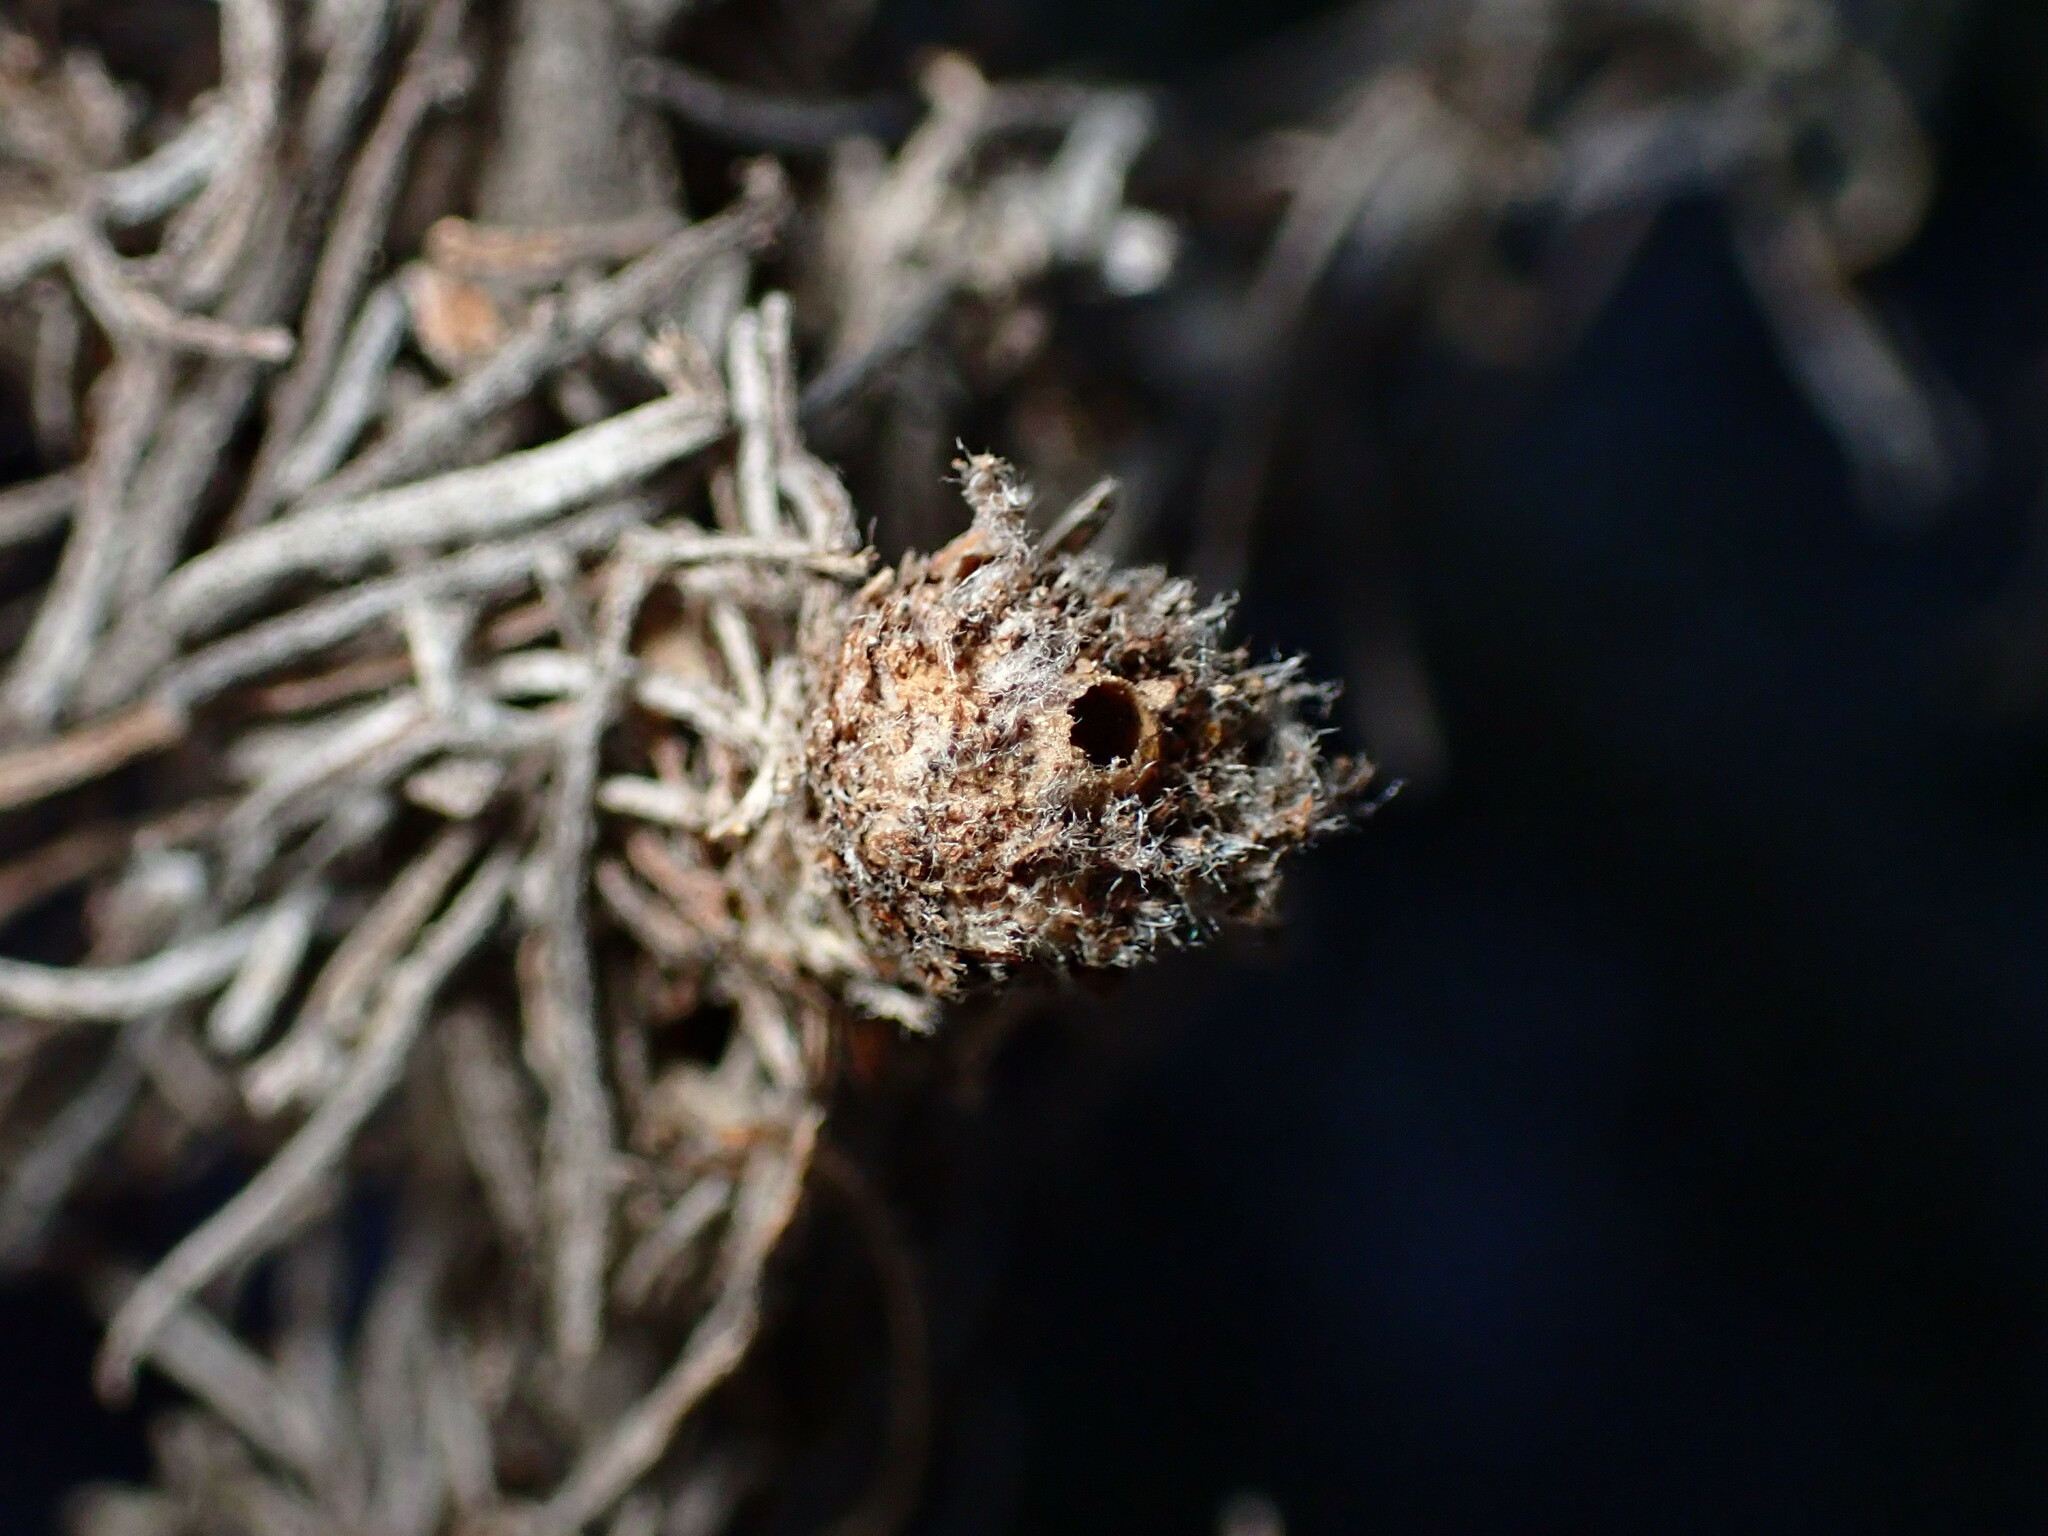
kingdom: Animalia
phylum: Arthropoda
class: Insecta
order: Diptera
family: Cecidomyiidae
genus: Rhopalomyia
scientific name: Rhopalomyia floccosa
